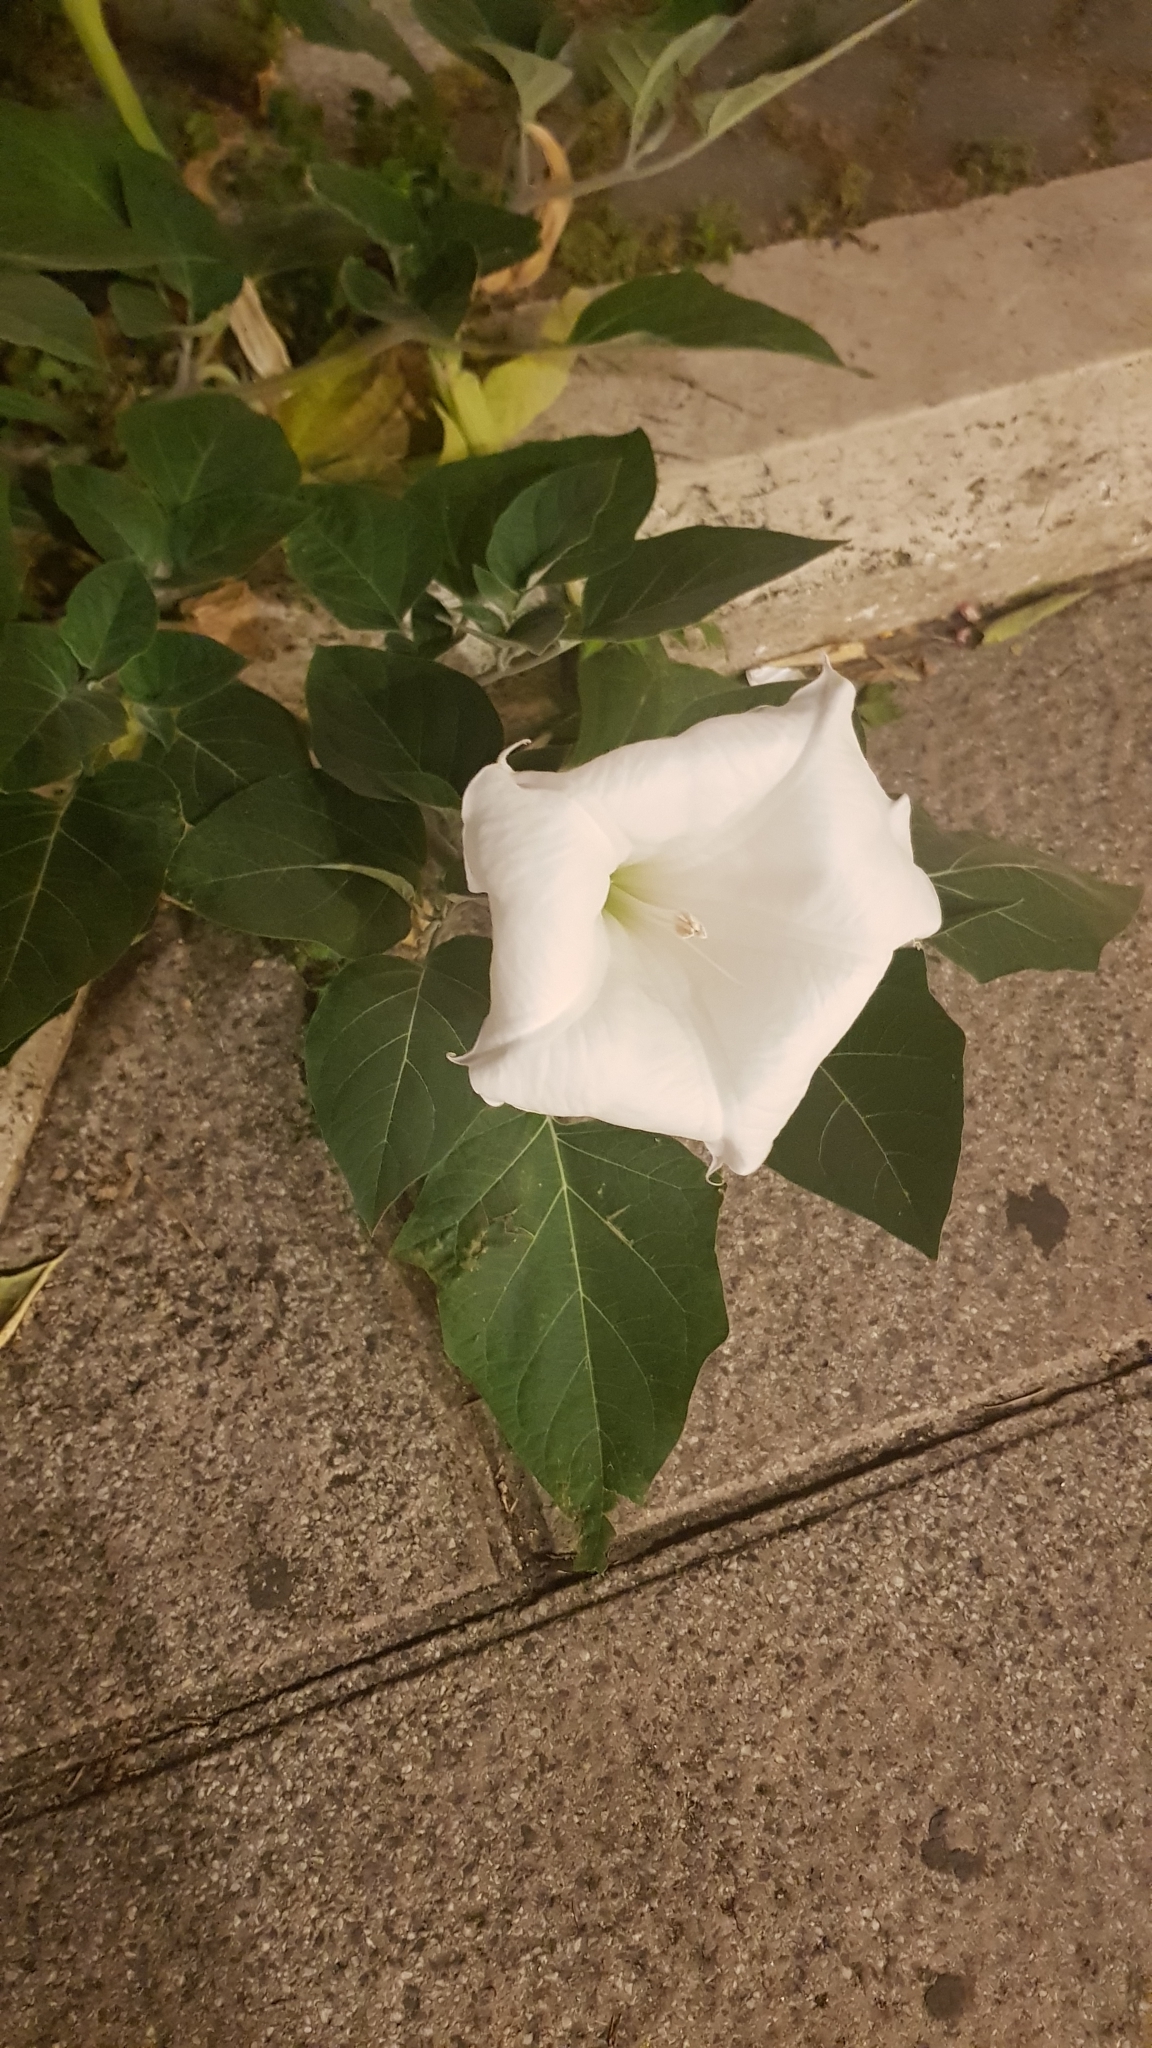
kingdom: Plantae
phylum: Tracheophyta
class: Magnoliopsida
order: Solanales
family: Solanaceae
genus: Datura
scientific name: Datura wrightii
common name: Sacred thorn-apple
